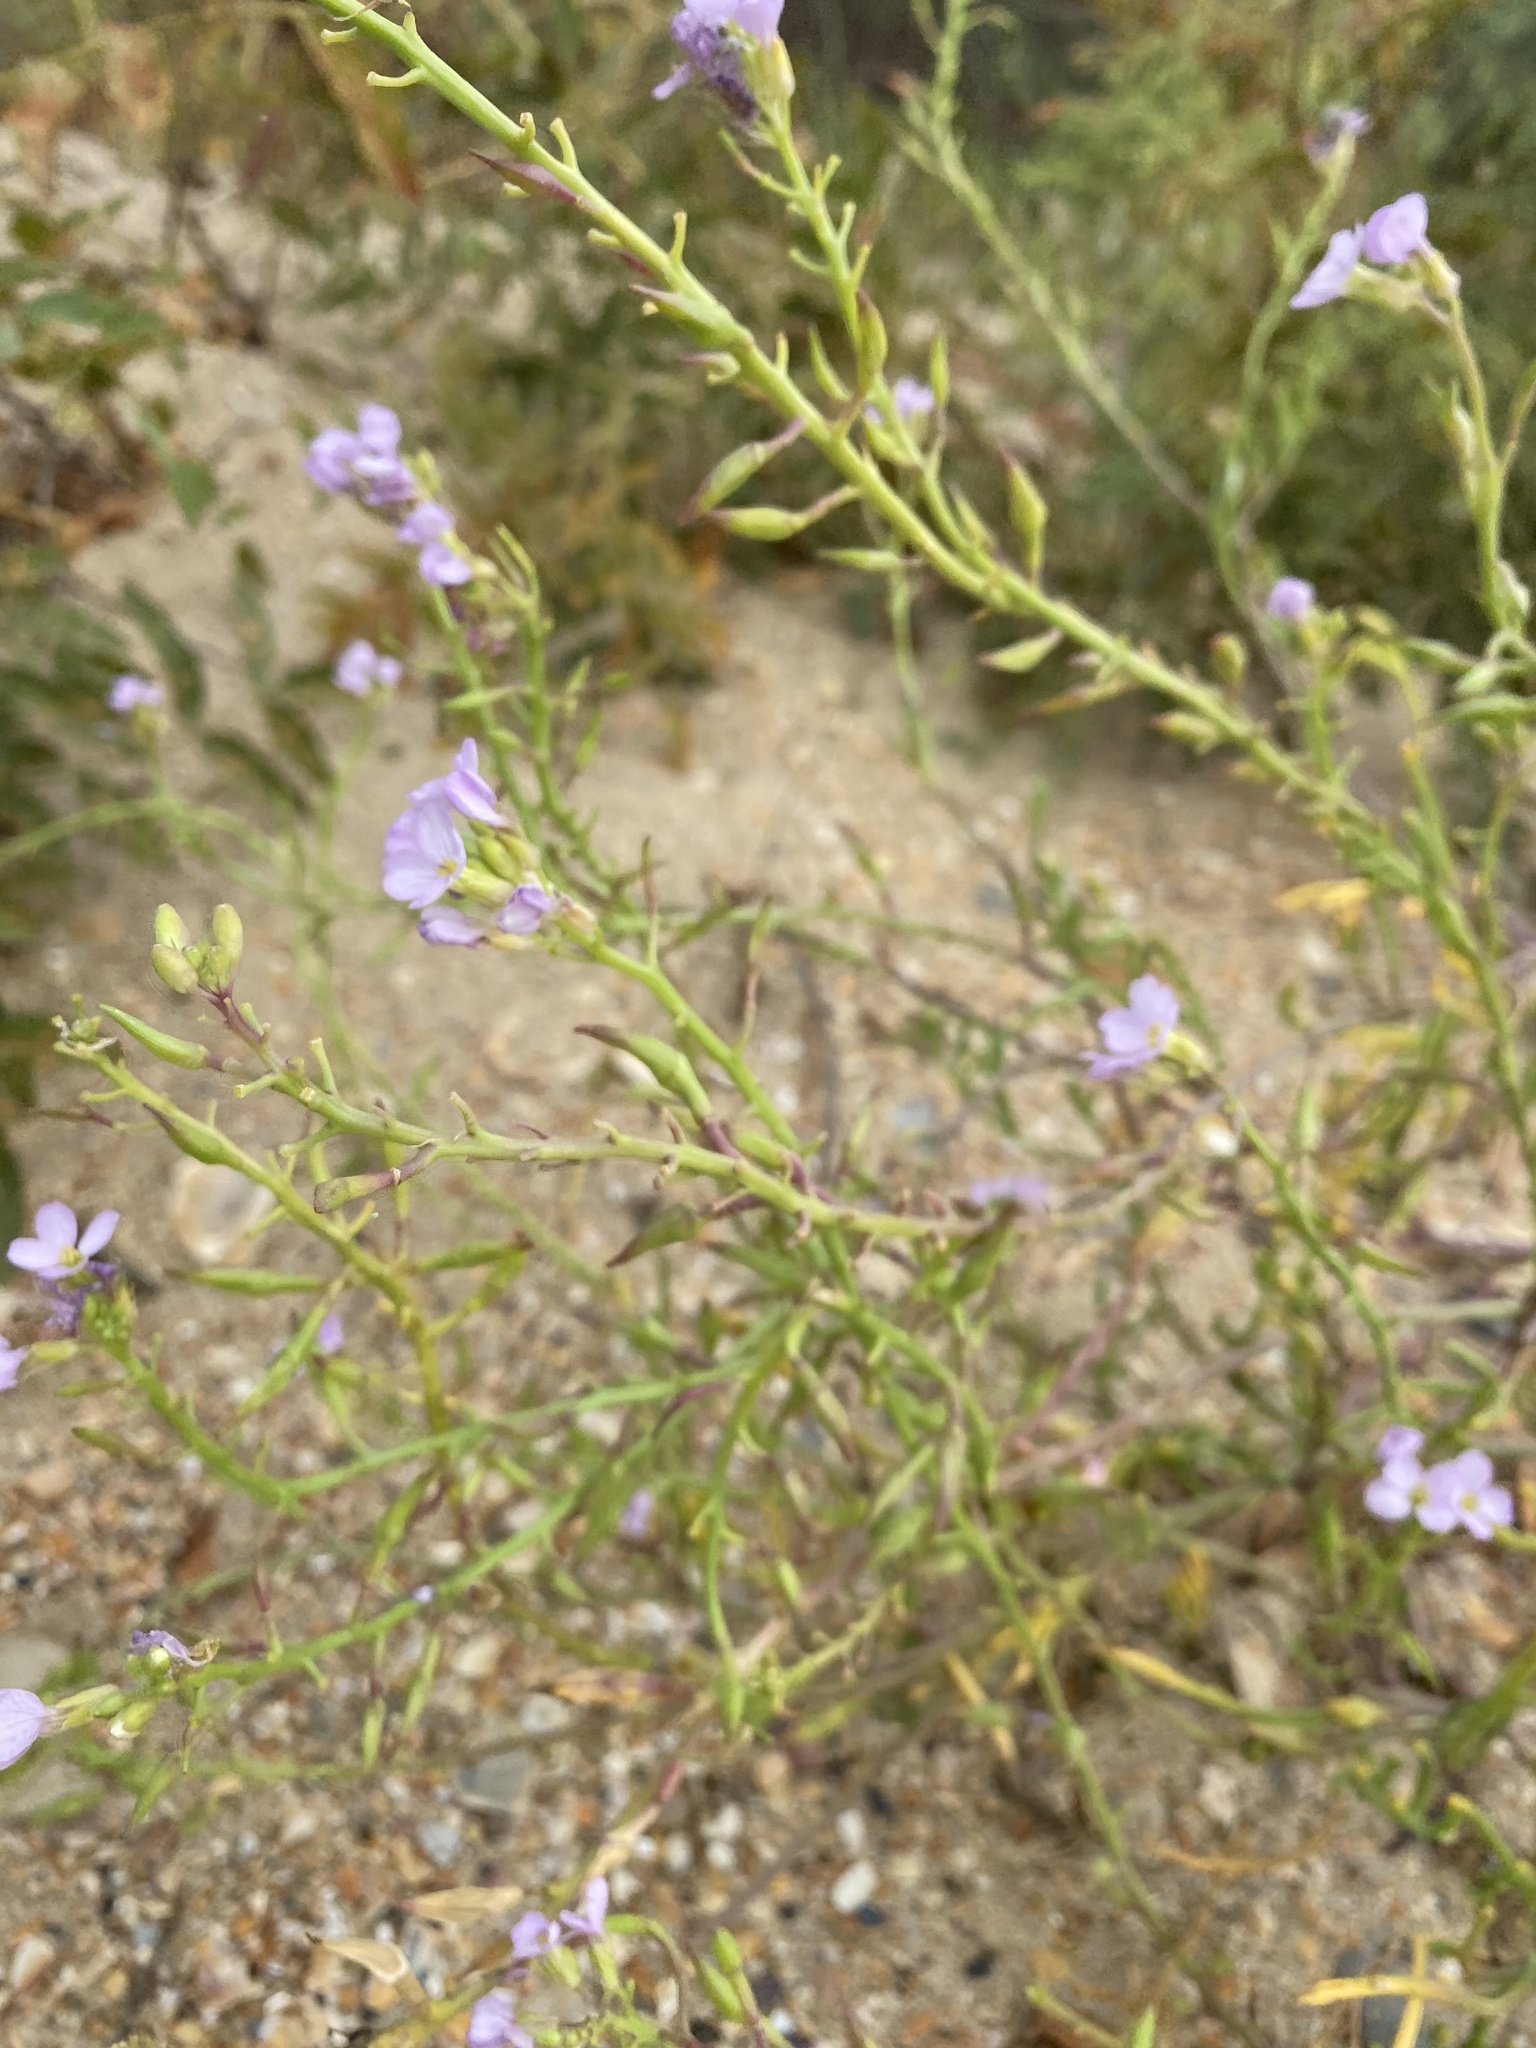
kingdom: Plantae
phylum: Tracheophyta
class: Magnoliopsida
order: Brassicales
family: Brassicaceae
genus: Cakile
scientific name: Cakile maritima
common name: Sea rocket
